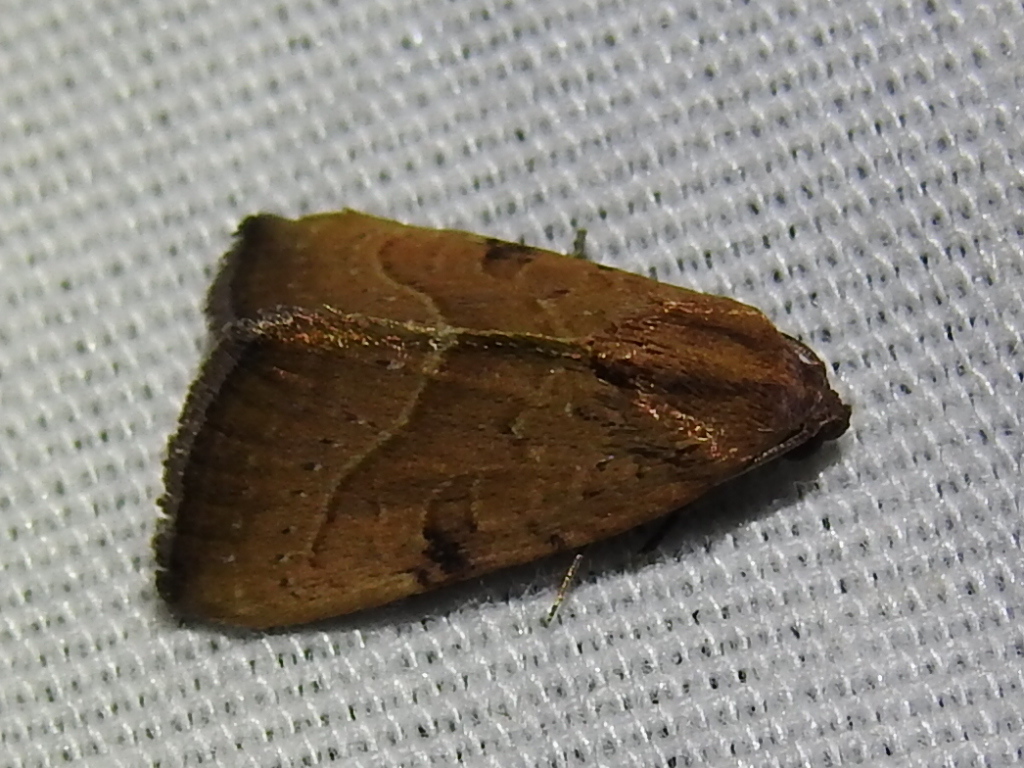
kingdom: Animalia
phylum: Arthropoda
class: Insecta
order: Lepidoptera
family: Noctuidae
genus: Galgula
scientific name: Galgula partita
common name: Wedgeling
